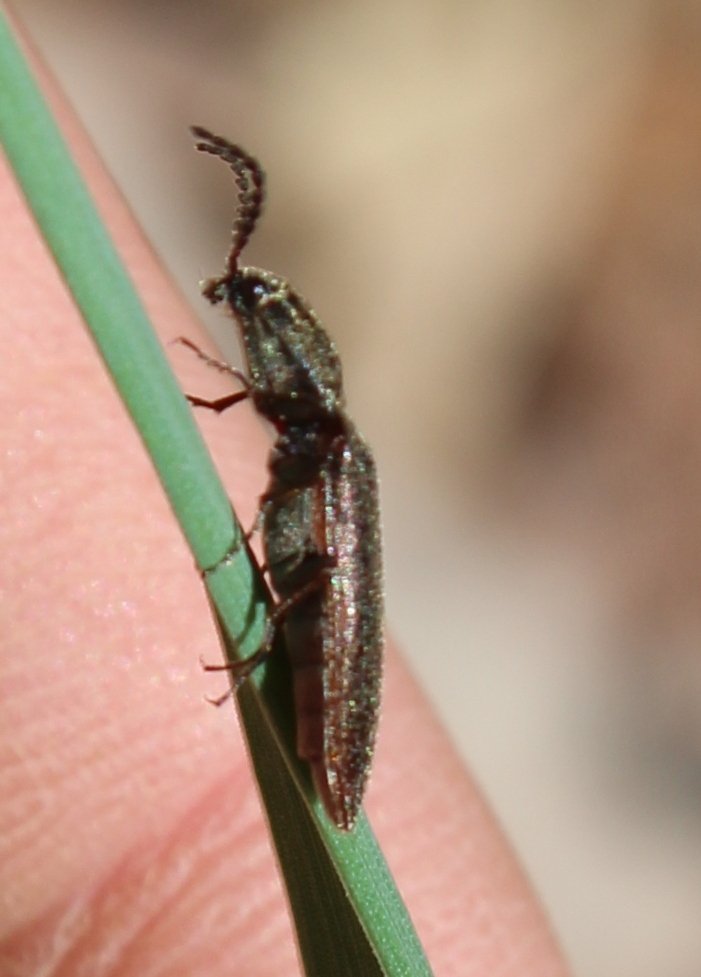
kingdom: Animalia
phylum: Arthropoda
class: Insecta
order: Coleoptera
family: Elateridae
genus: Sylvanelater
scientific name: Sylvanelater cylindriformis
